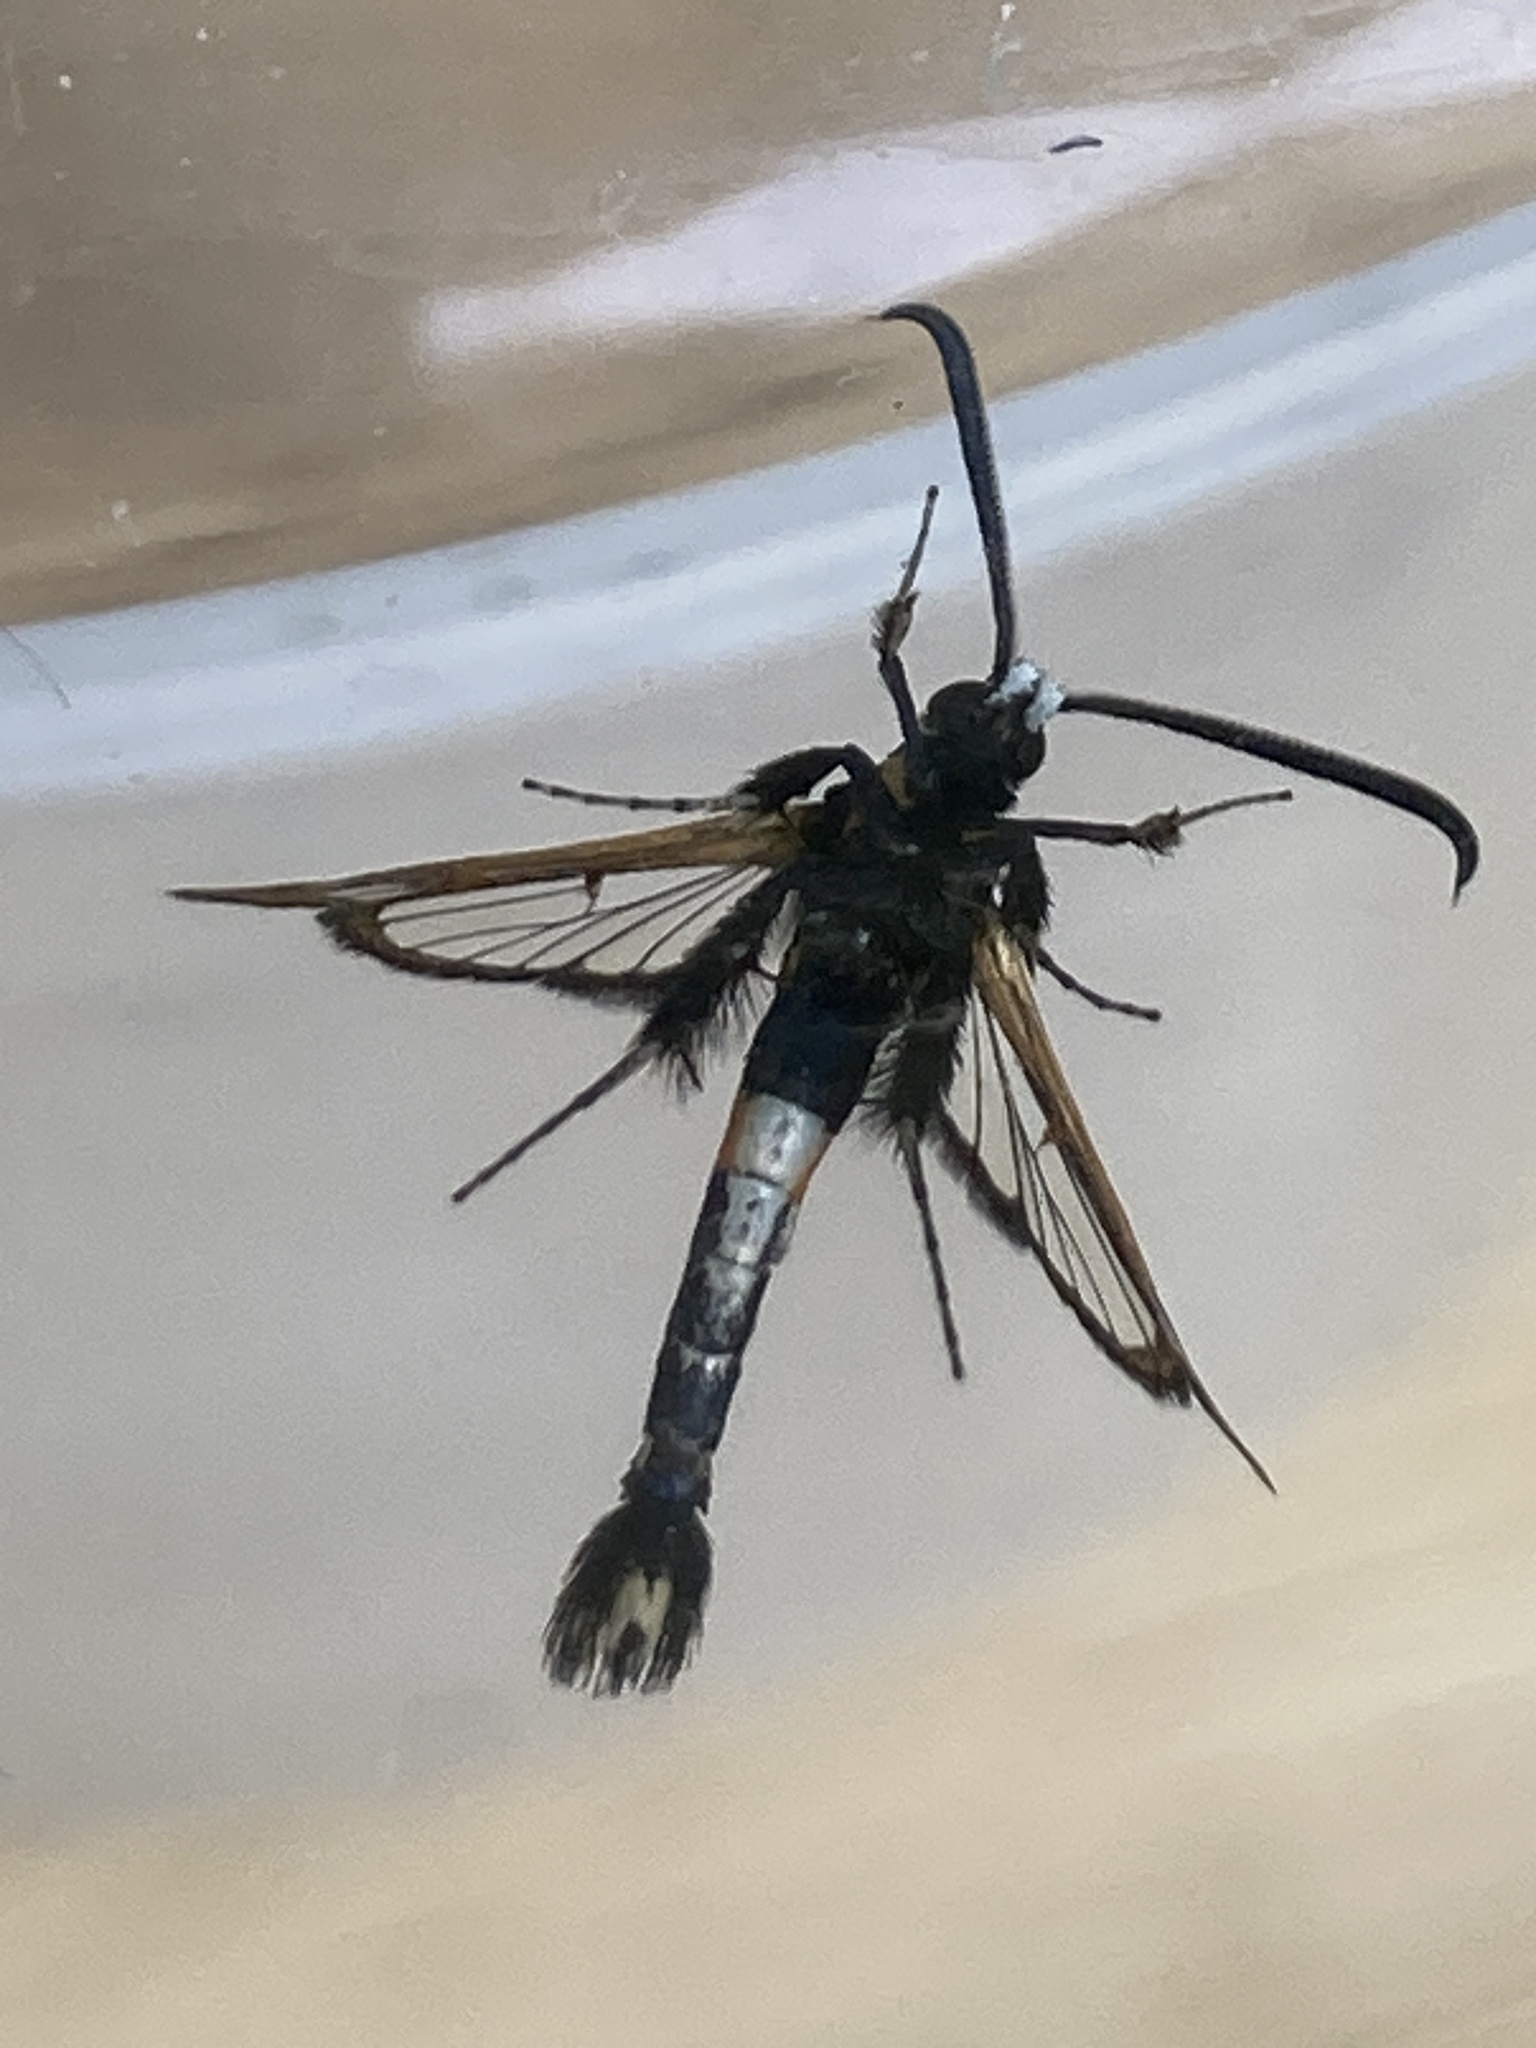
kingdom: Animalia
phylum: Arthropoda
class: Insecta
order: Lepidoptera
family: Sesiidae
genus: Synanthedon
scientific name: Synanthedon myopaeformis
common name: Red-belted clearwing
